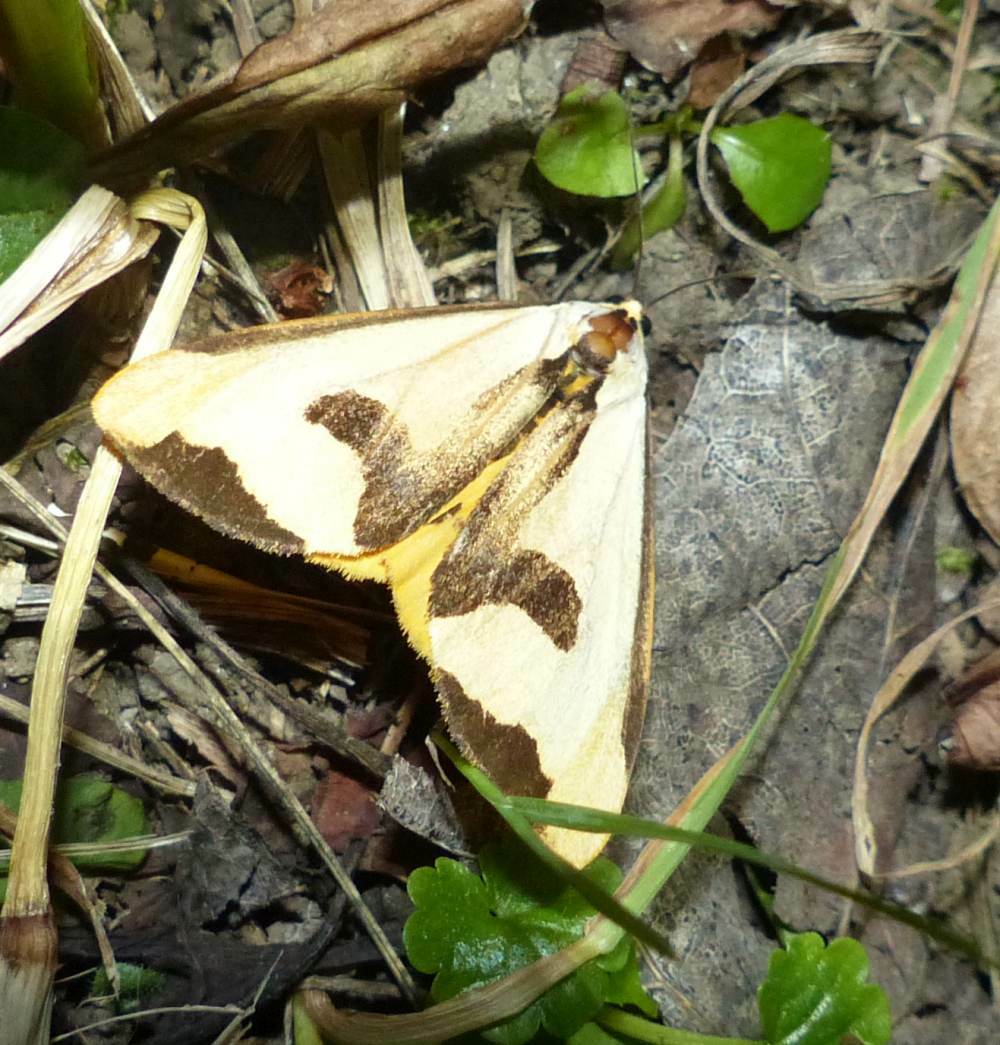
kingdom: Animalia
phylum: Arthropoda
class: Insecta
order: Lepidoptera
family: Erebidae
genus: Haploa
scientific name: Haploa clymene
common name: Clymene moth
